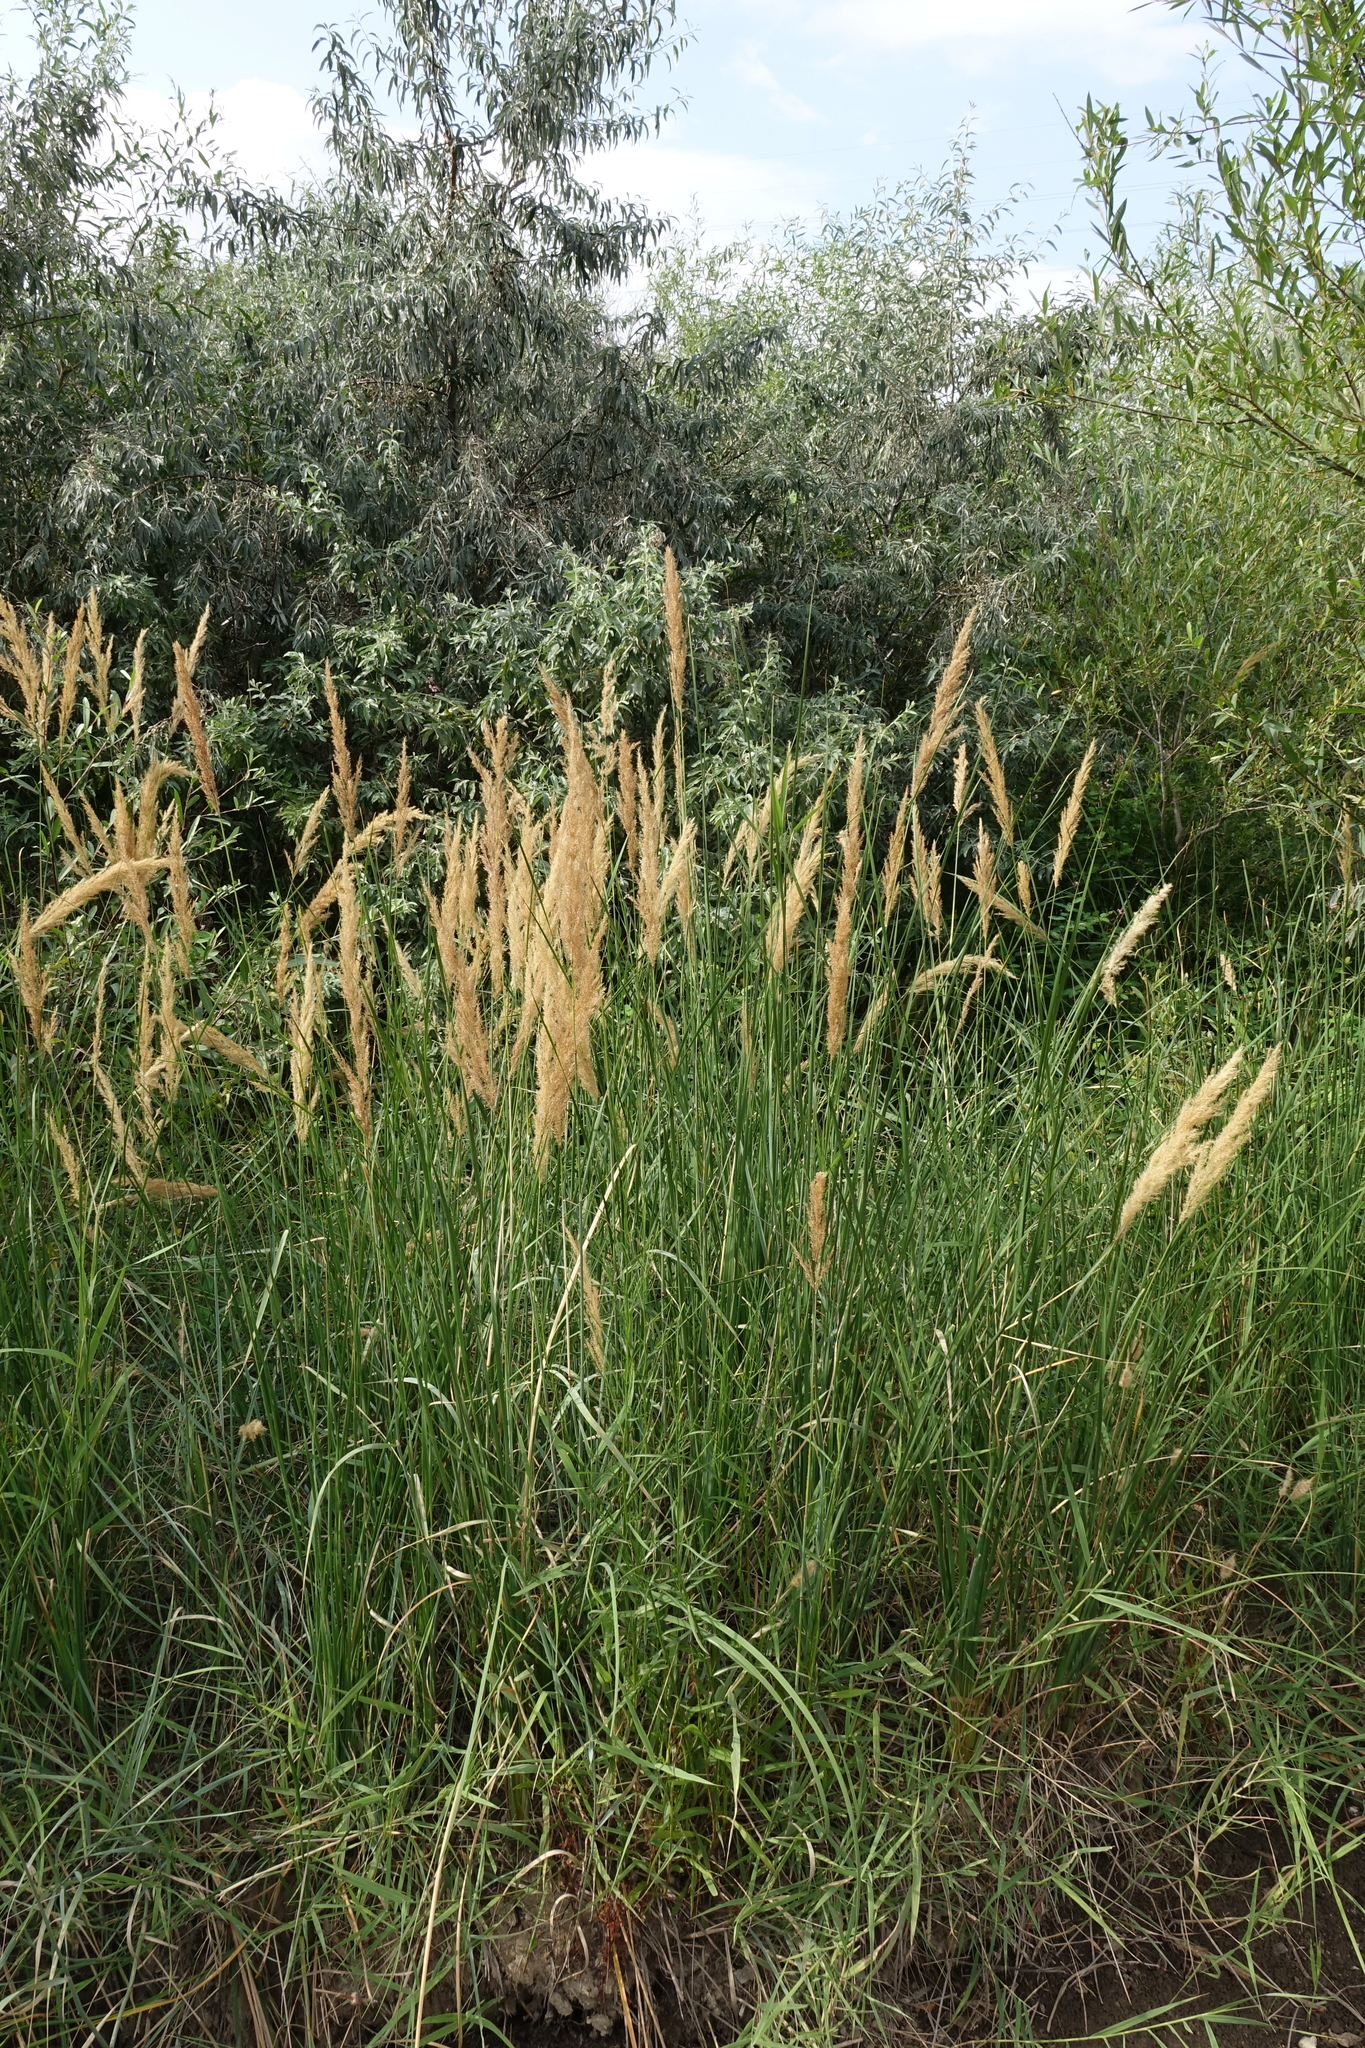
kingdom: Plantae
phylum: Tracheophyta
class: Liliopsida
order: Poales
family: Poaceae
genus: Calamagrostis
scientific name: Calamagrostis epigejos
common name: Wood small-reed
